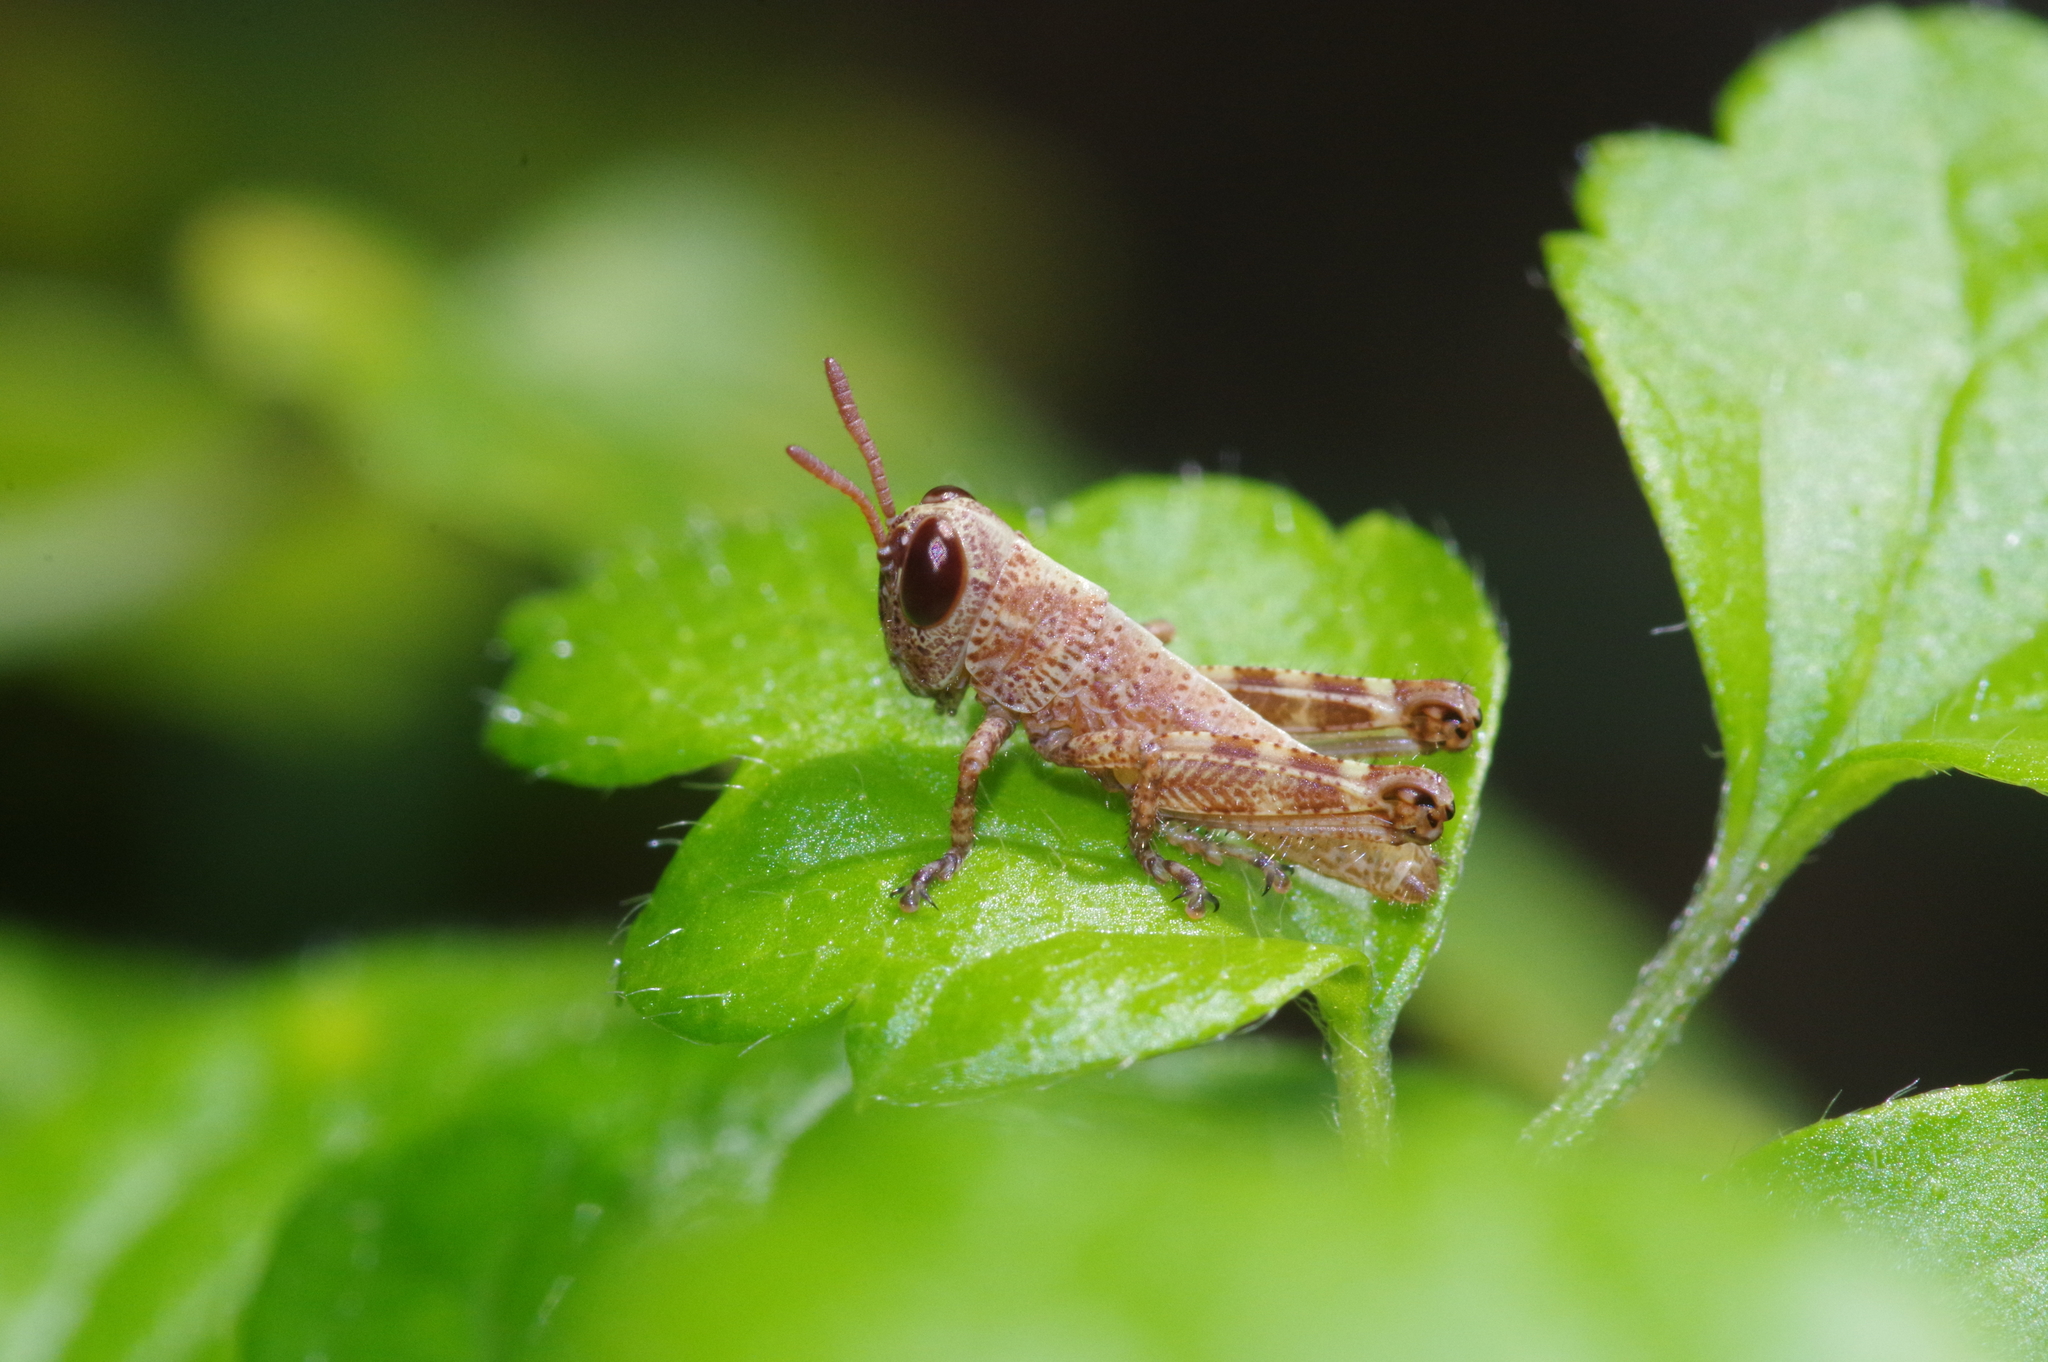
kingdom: Animalia
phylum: Arthropoda
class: Insecta
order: Orthoptera
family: Acrididae
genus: Fruhstorferiola
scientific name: Fruhstorferiola okinawaensis
